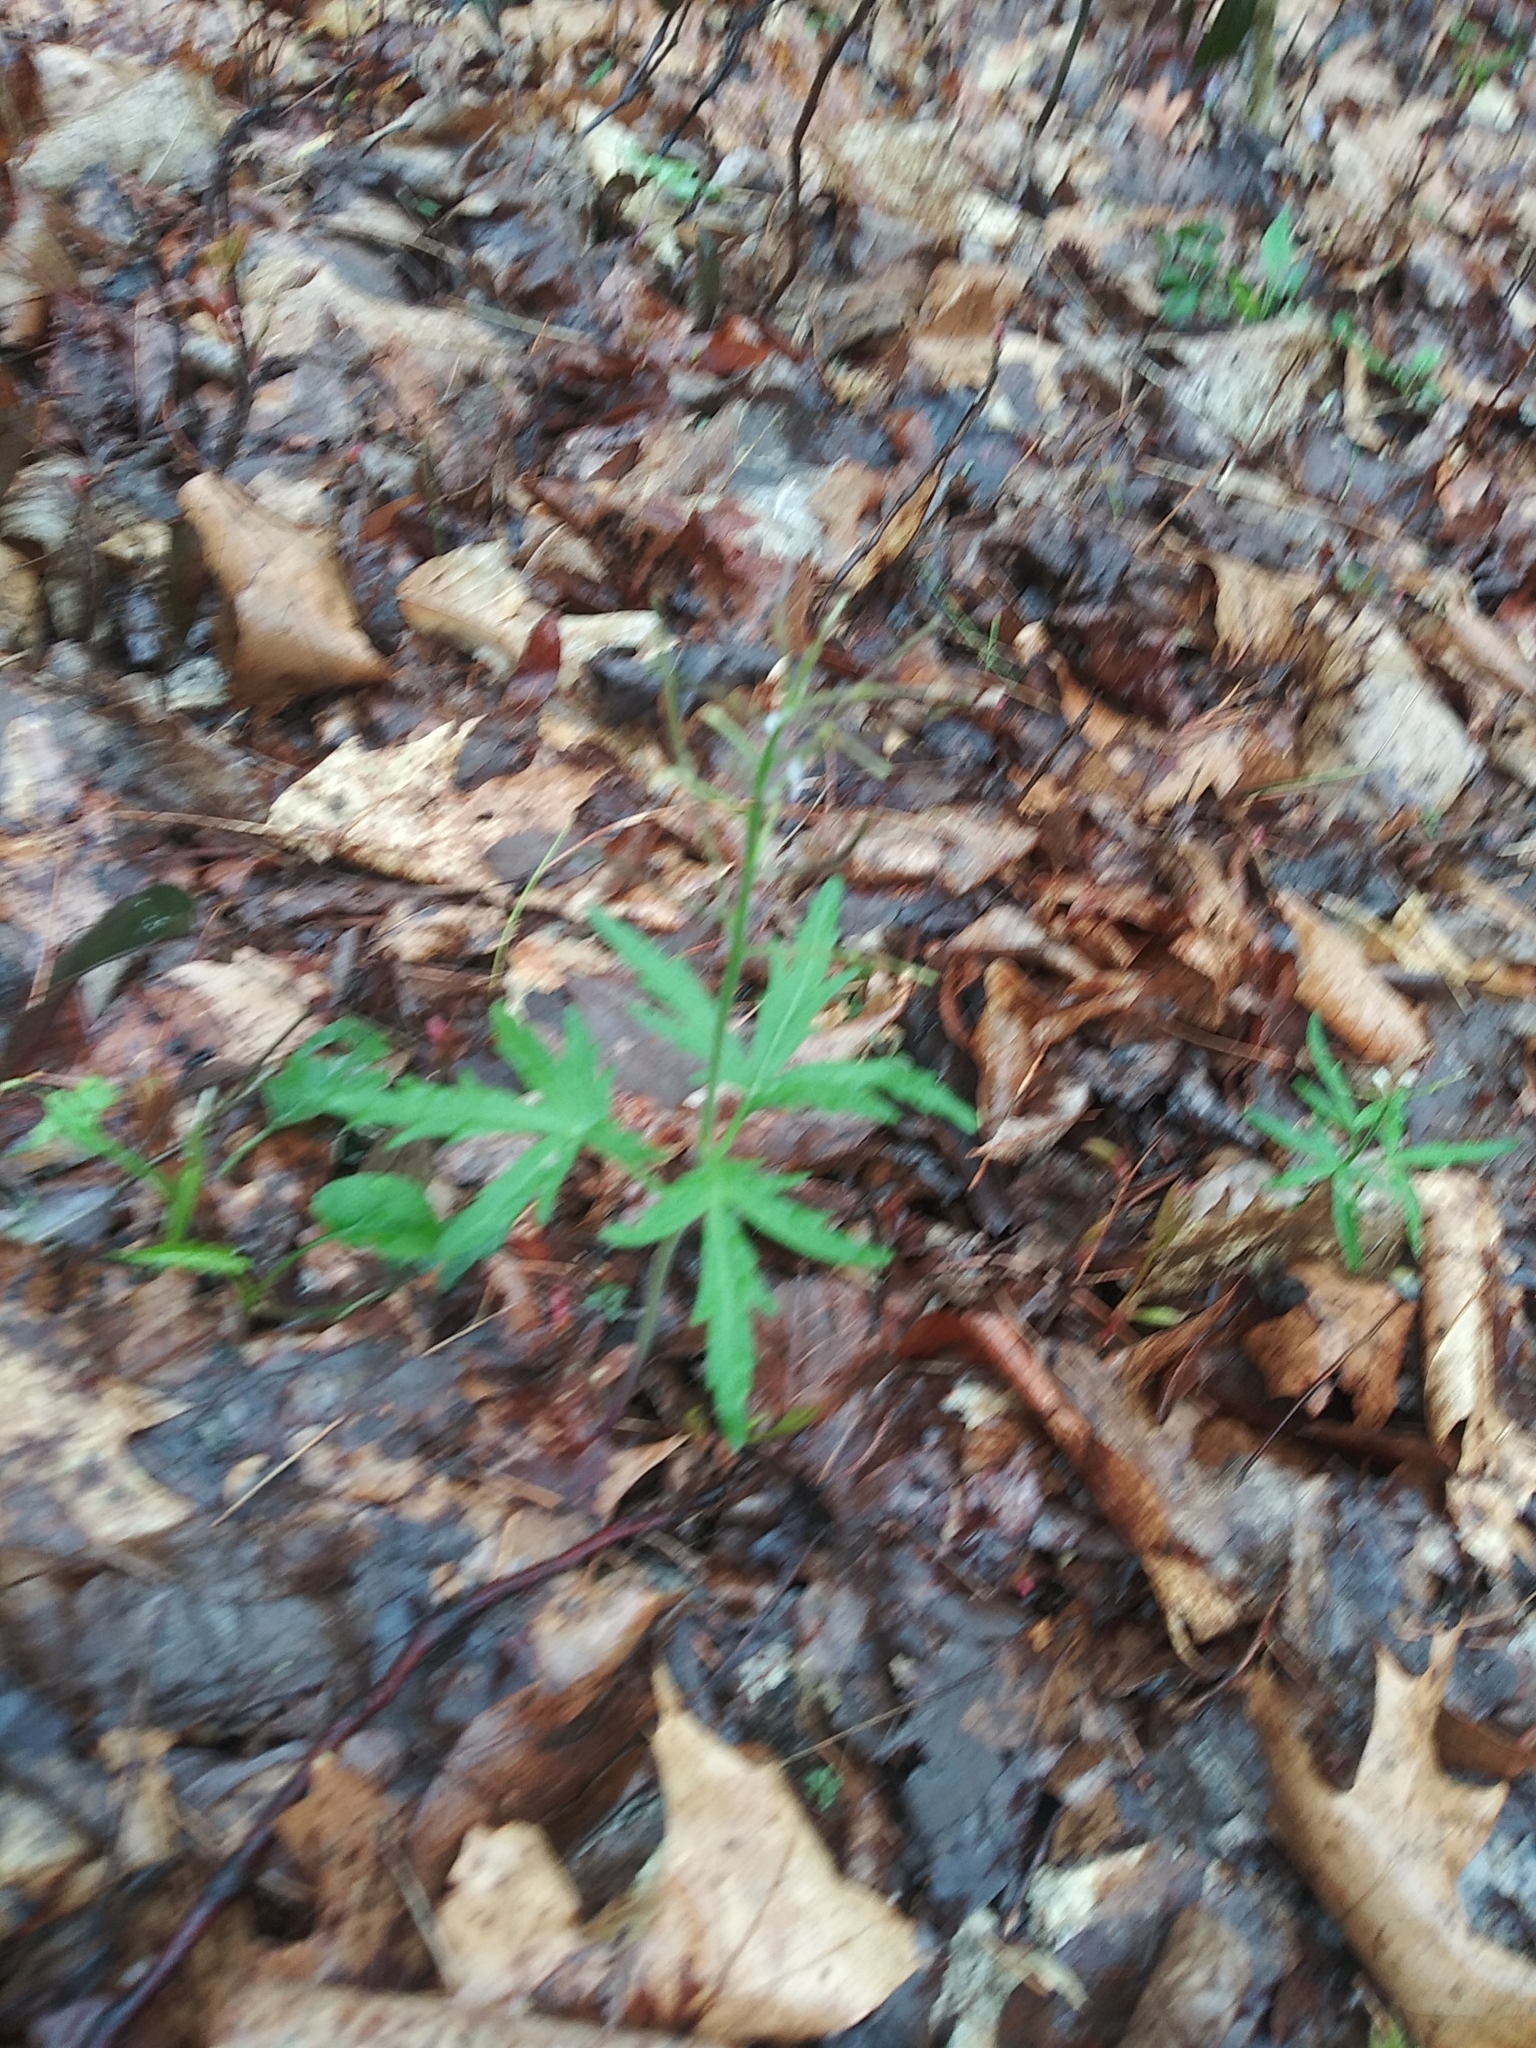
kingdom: Plantae
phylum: Tracheophyta
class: Magnoliopsida
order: Brassicales
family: Brassicaceae
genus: Cardamine
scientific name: Cardamine concatenata
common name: Cut-leaf toothcup
